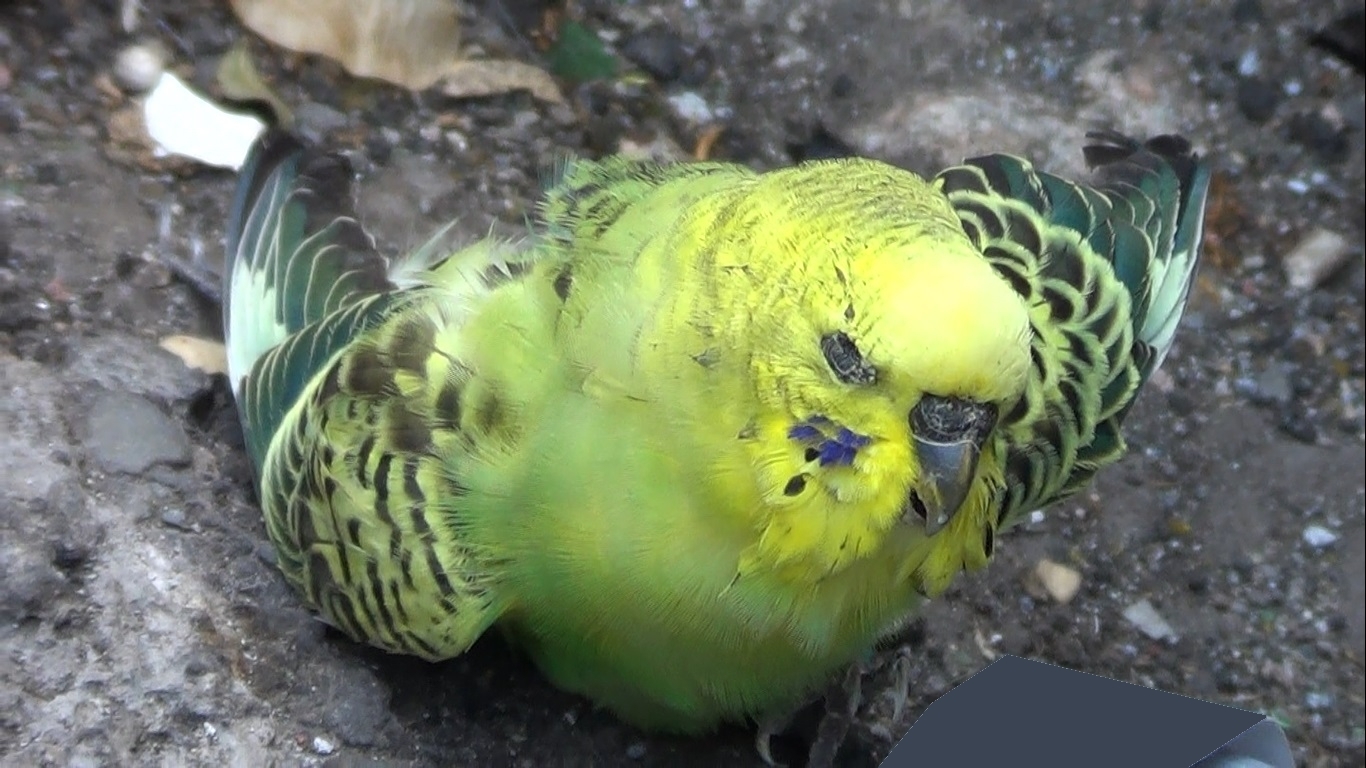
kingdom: Animalia
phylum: Chordata
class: Aves
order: Psittaciformes
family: Psittacidae
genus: Melopsittacus
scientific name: Melopsittacus undulatus
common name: Budgerigar
